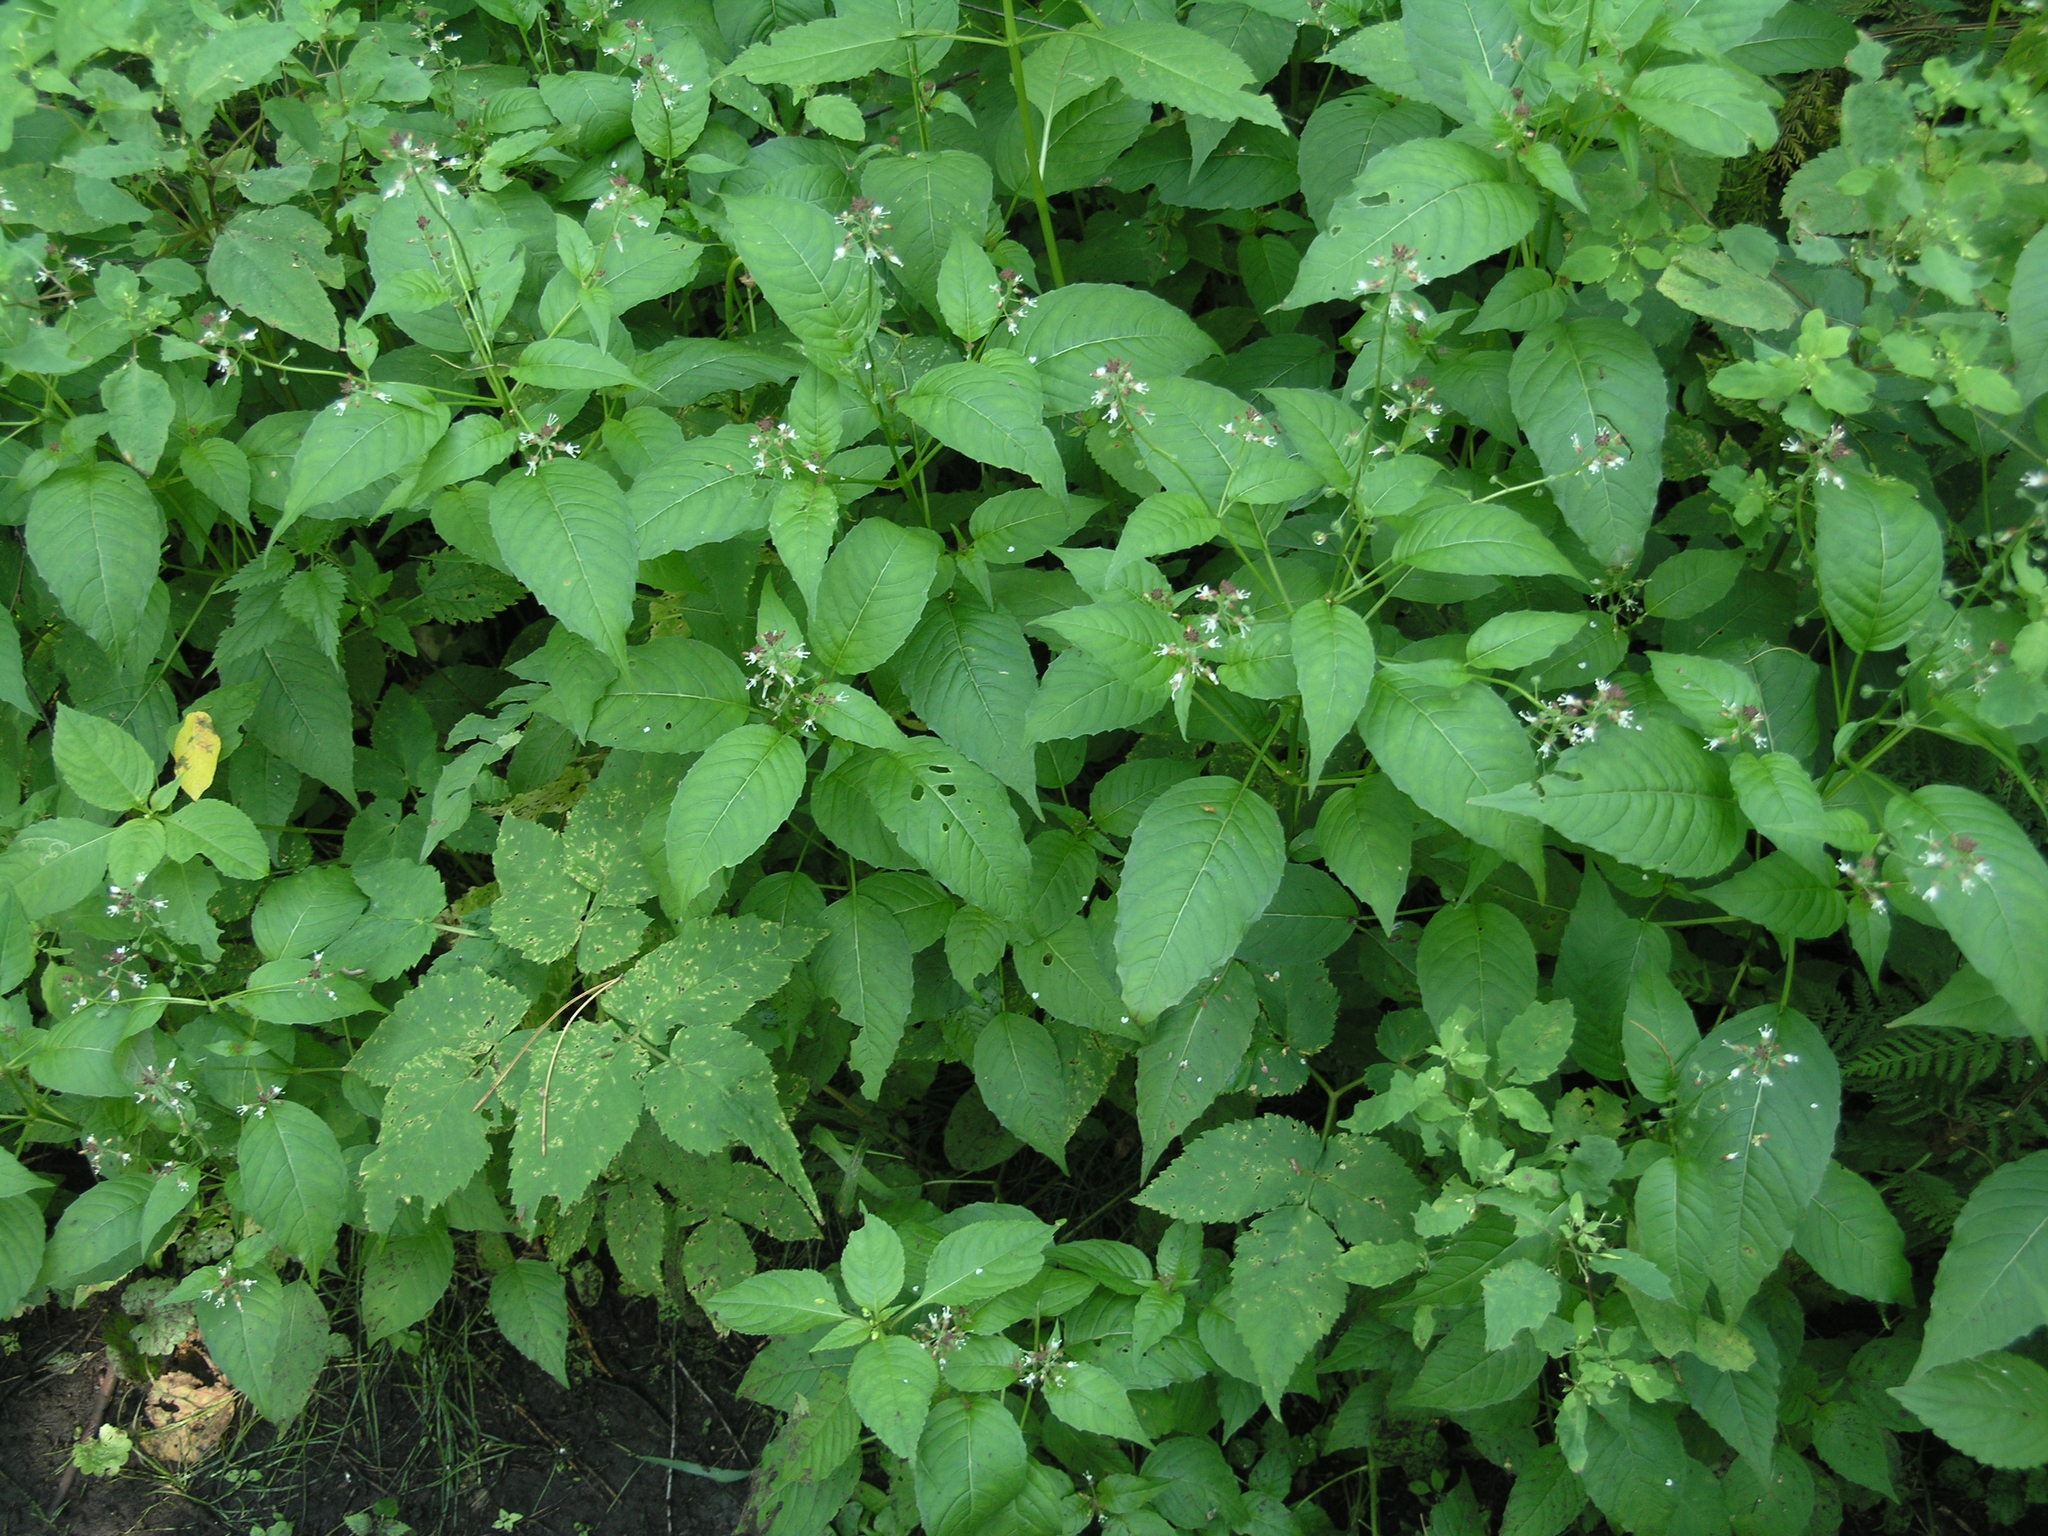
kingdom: Plantae
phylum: Tracheophyta
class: Magnoliopsida
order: Myrtales
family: Onagraceae
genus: Circaea
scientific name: Circaea lutetiana
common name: Enchanter's-nightshade
